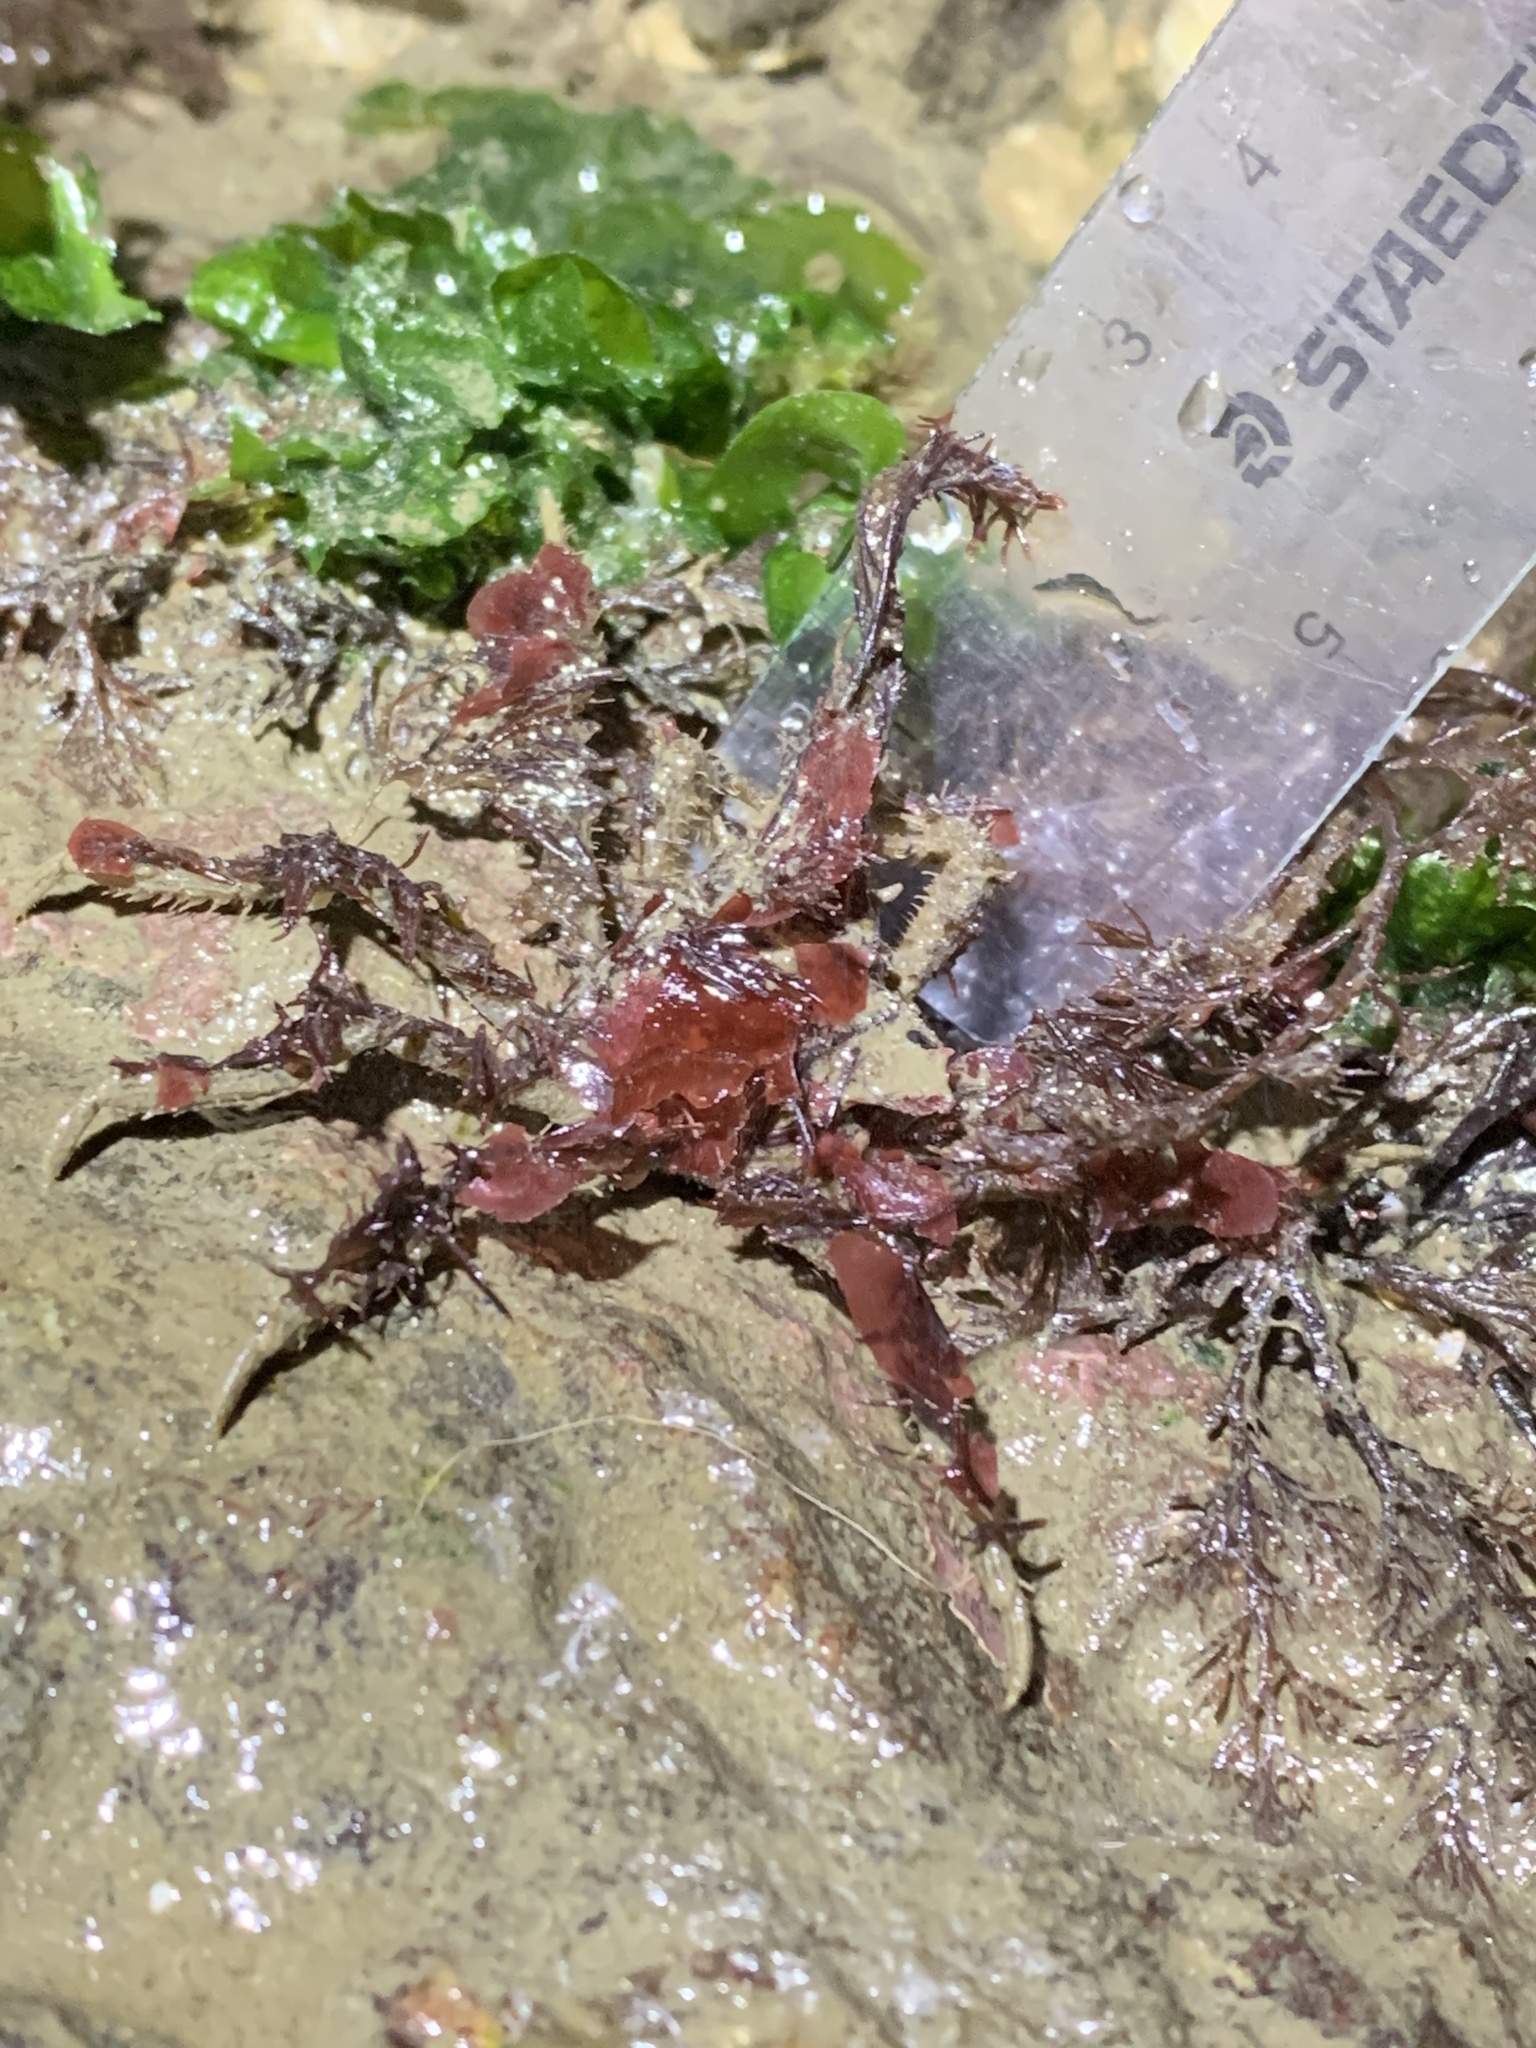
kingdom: Animalia
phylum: Arthropoda
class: Malacostraca
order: Decapoda
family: Oregoniidae
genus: Oregonia
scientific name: Oregonia gracilis
